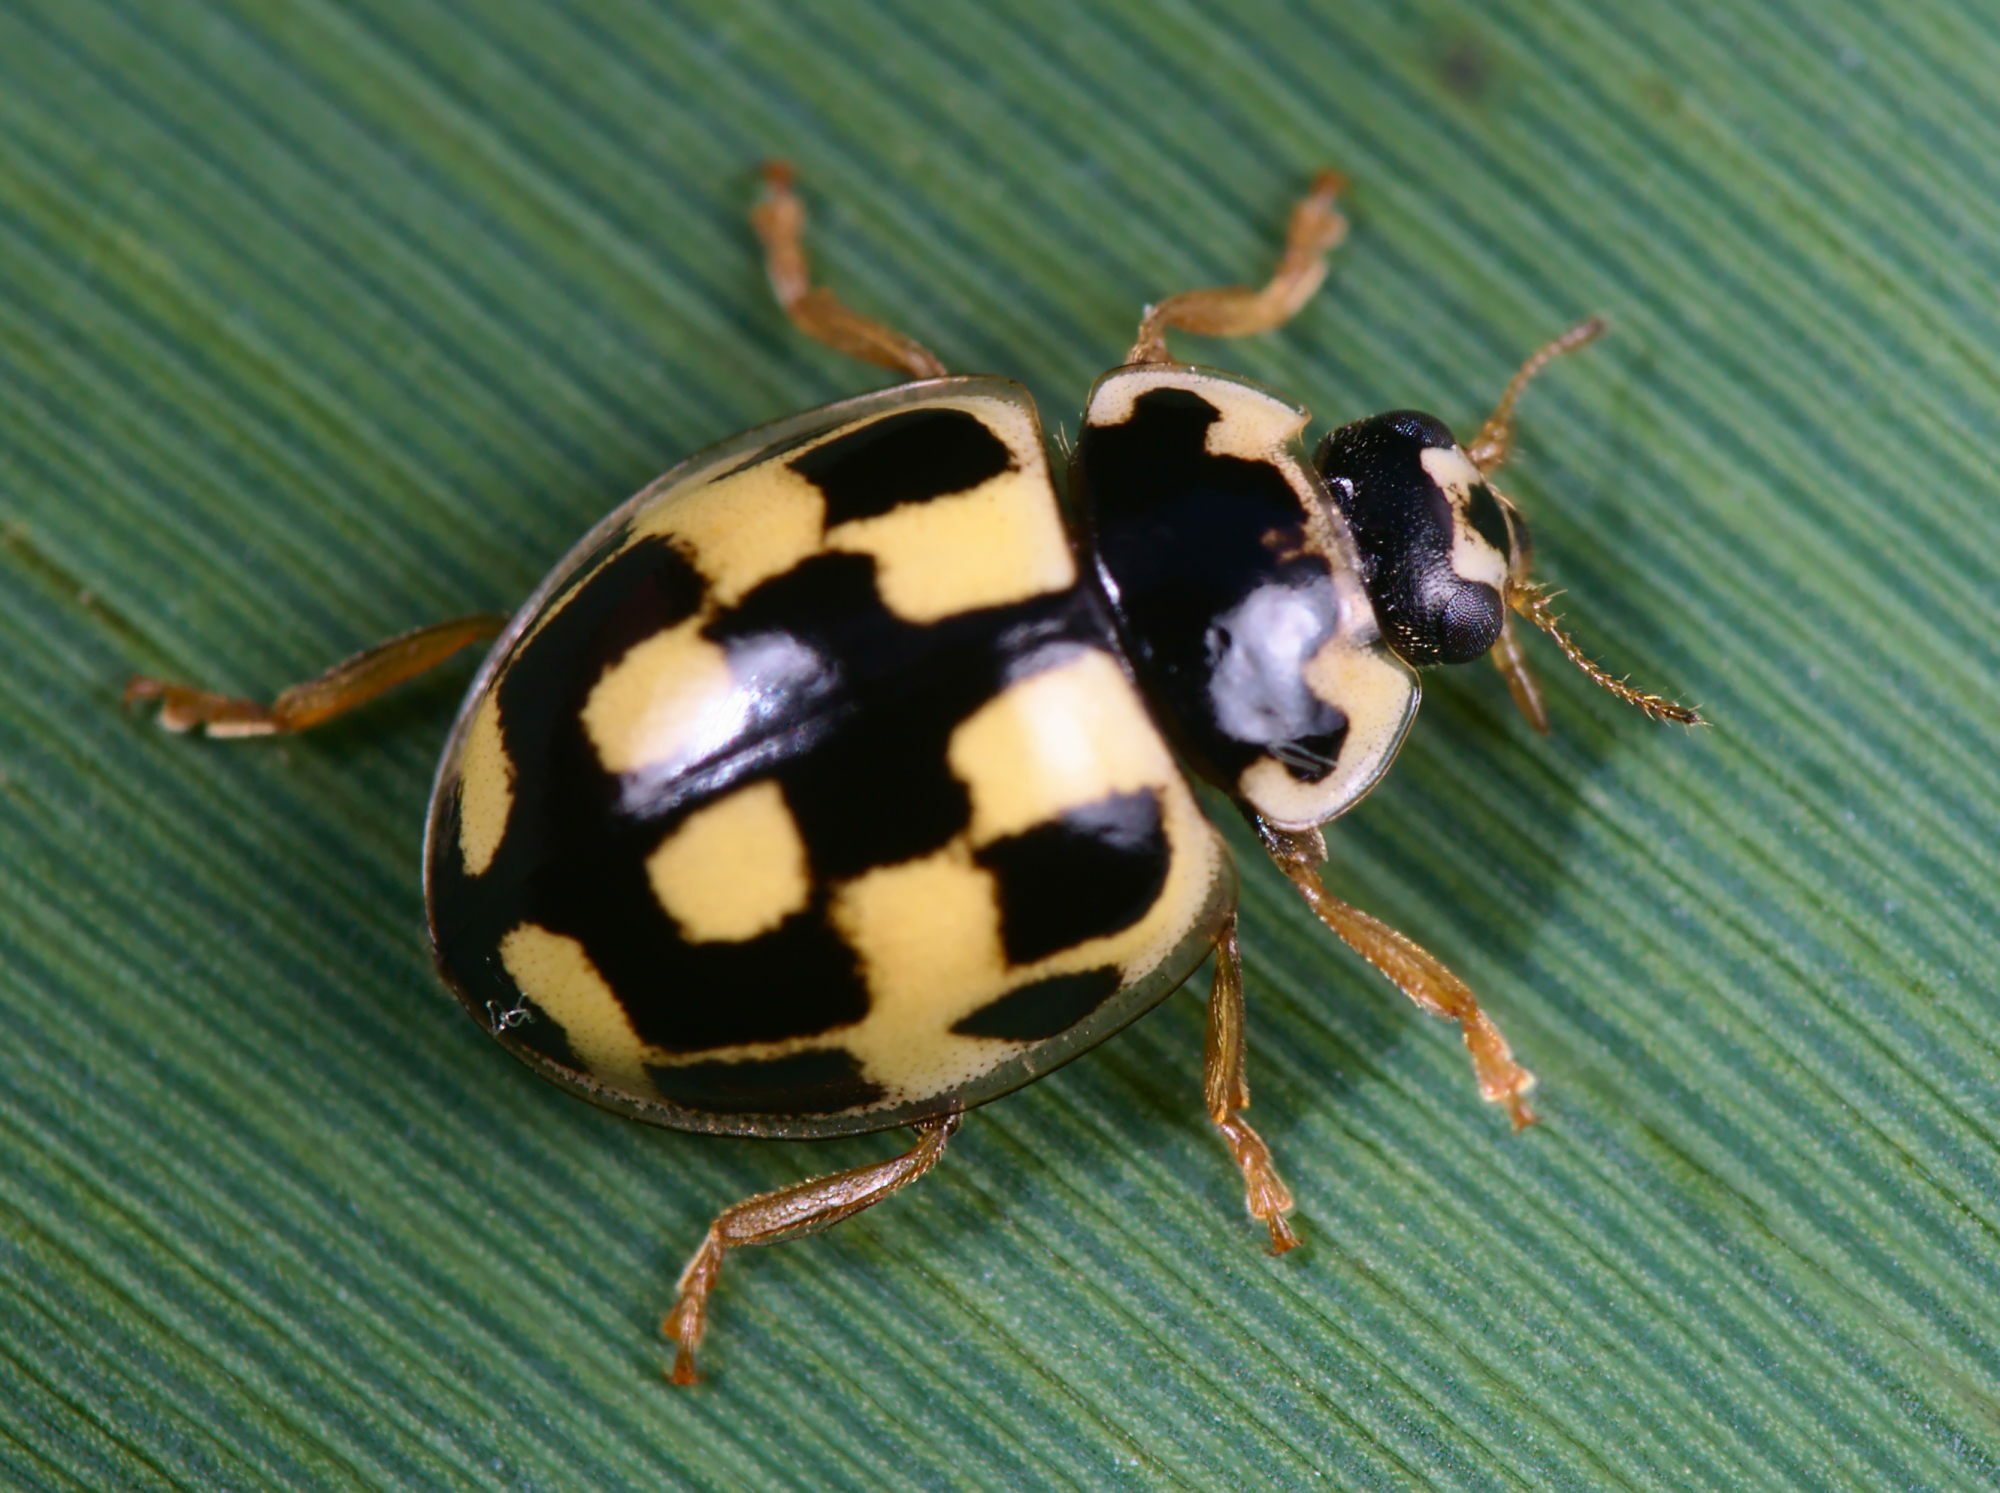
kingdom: Animalia
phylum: Arthropoda
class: Insecta
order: Coleoptera
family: Coccinellidae
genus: Propylaea
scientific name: Propylaea quatuordecimpunctata
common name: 14-spotted ladybird beetle
